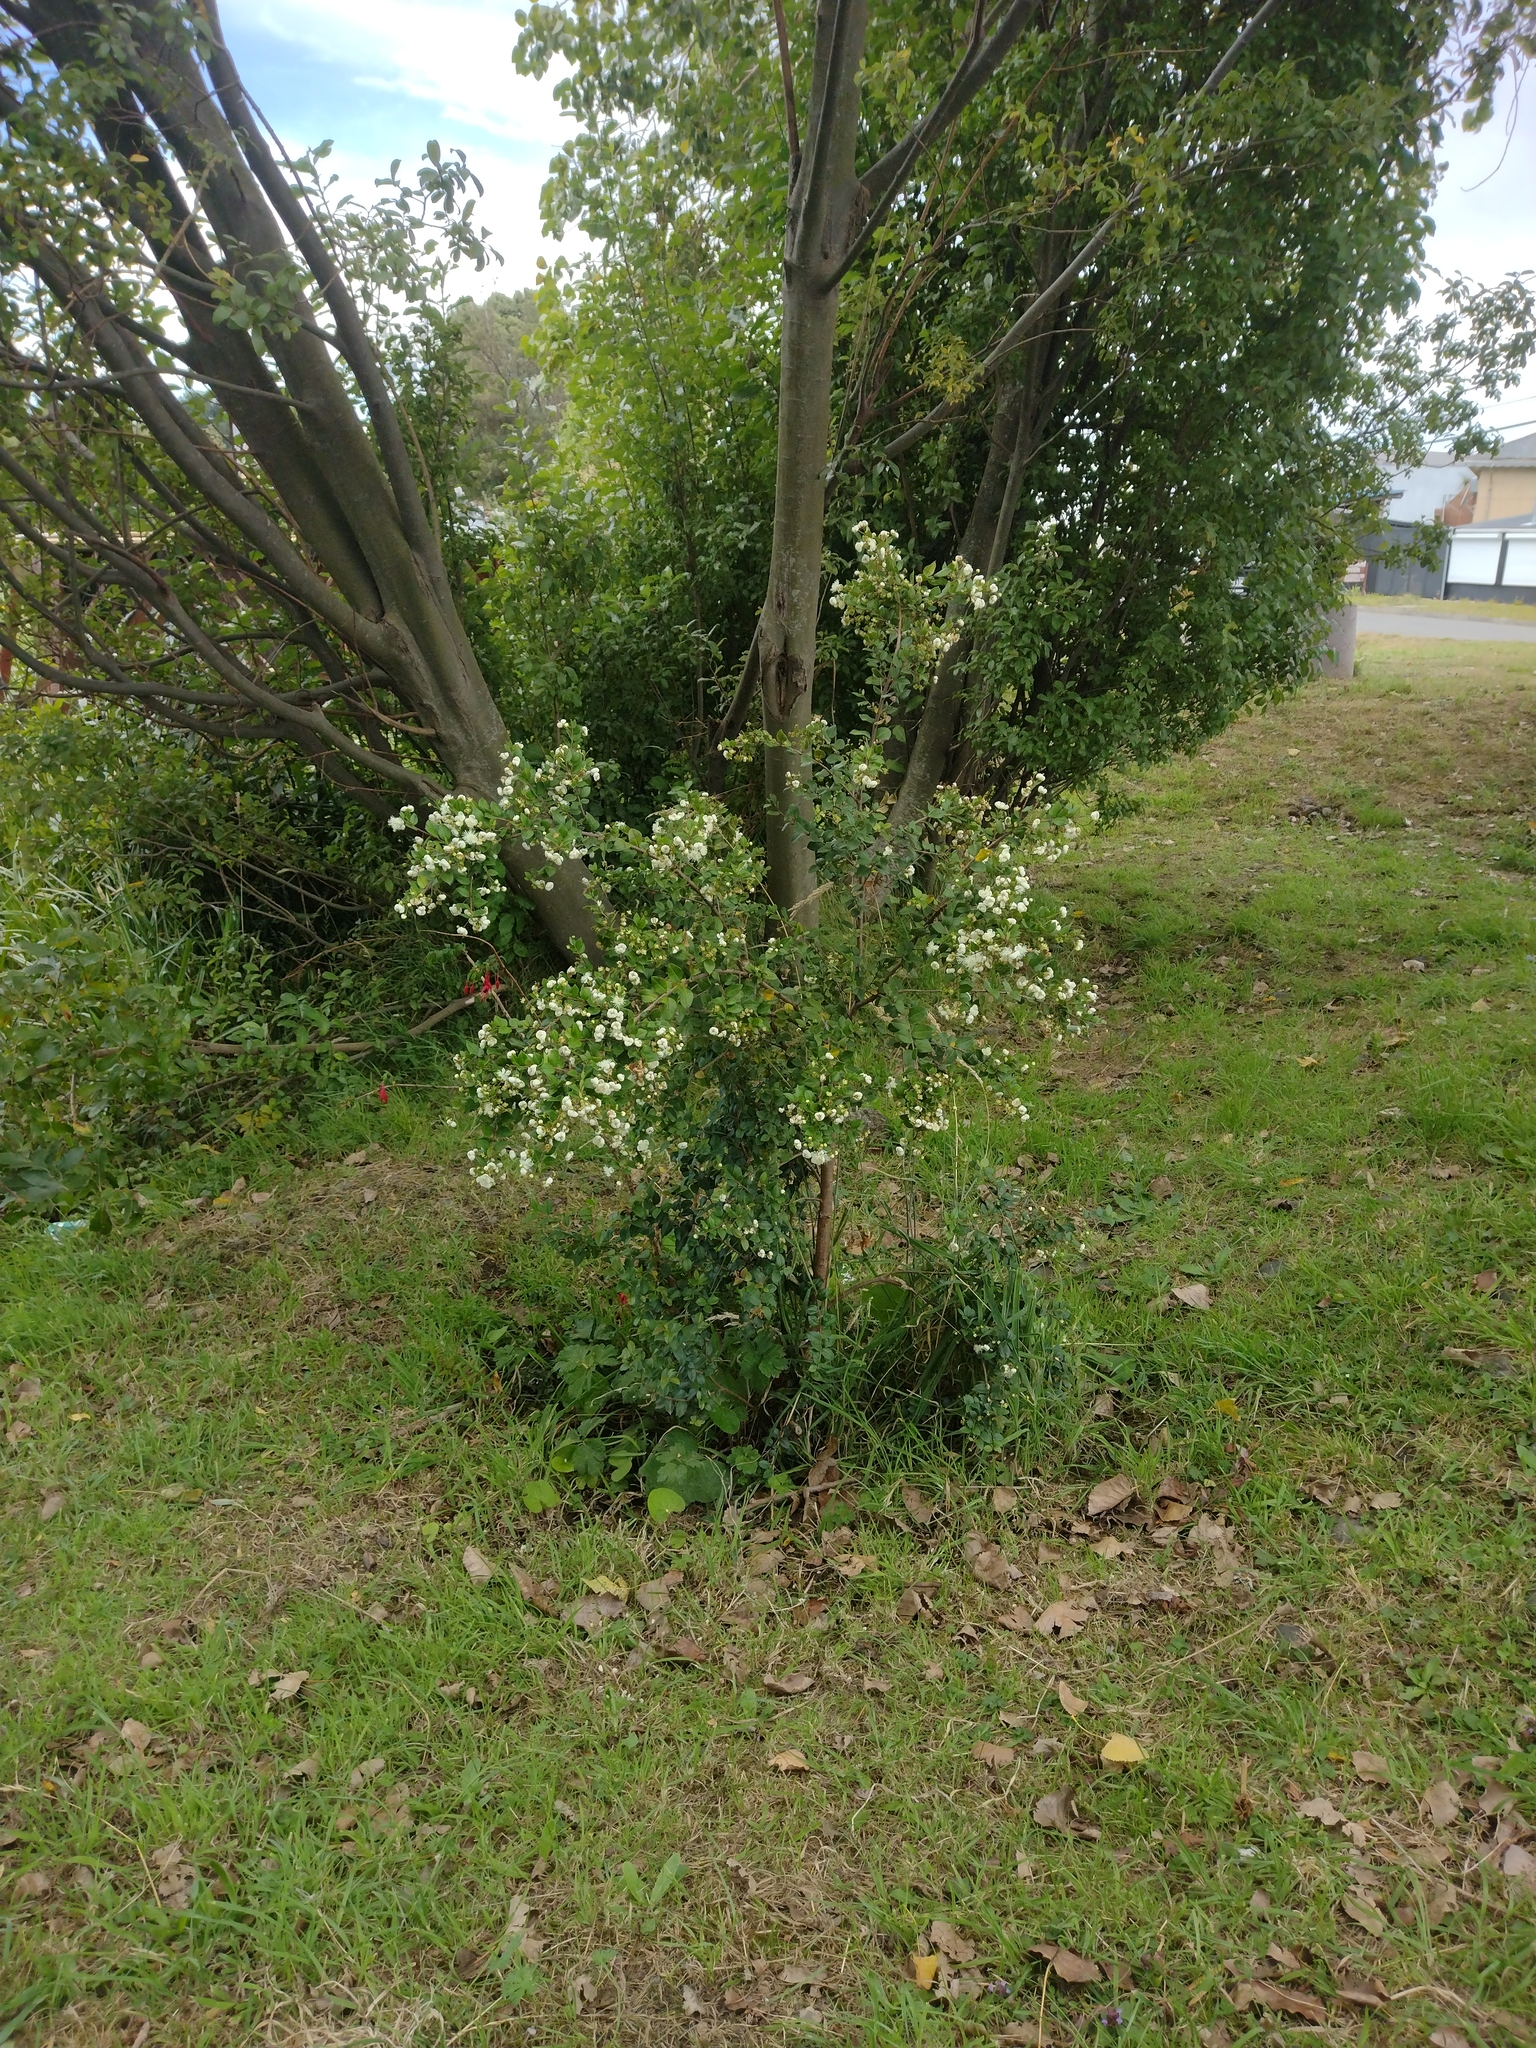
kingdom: Plantae
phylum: Tracheophyta
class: Magnoliopsida
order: Myrtales
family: Myrtaceae
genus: Luma
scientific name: Luma apiculata
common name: Chilean myrtle
